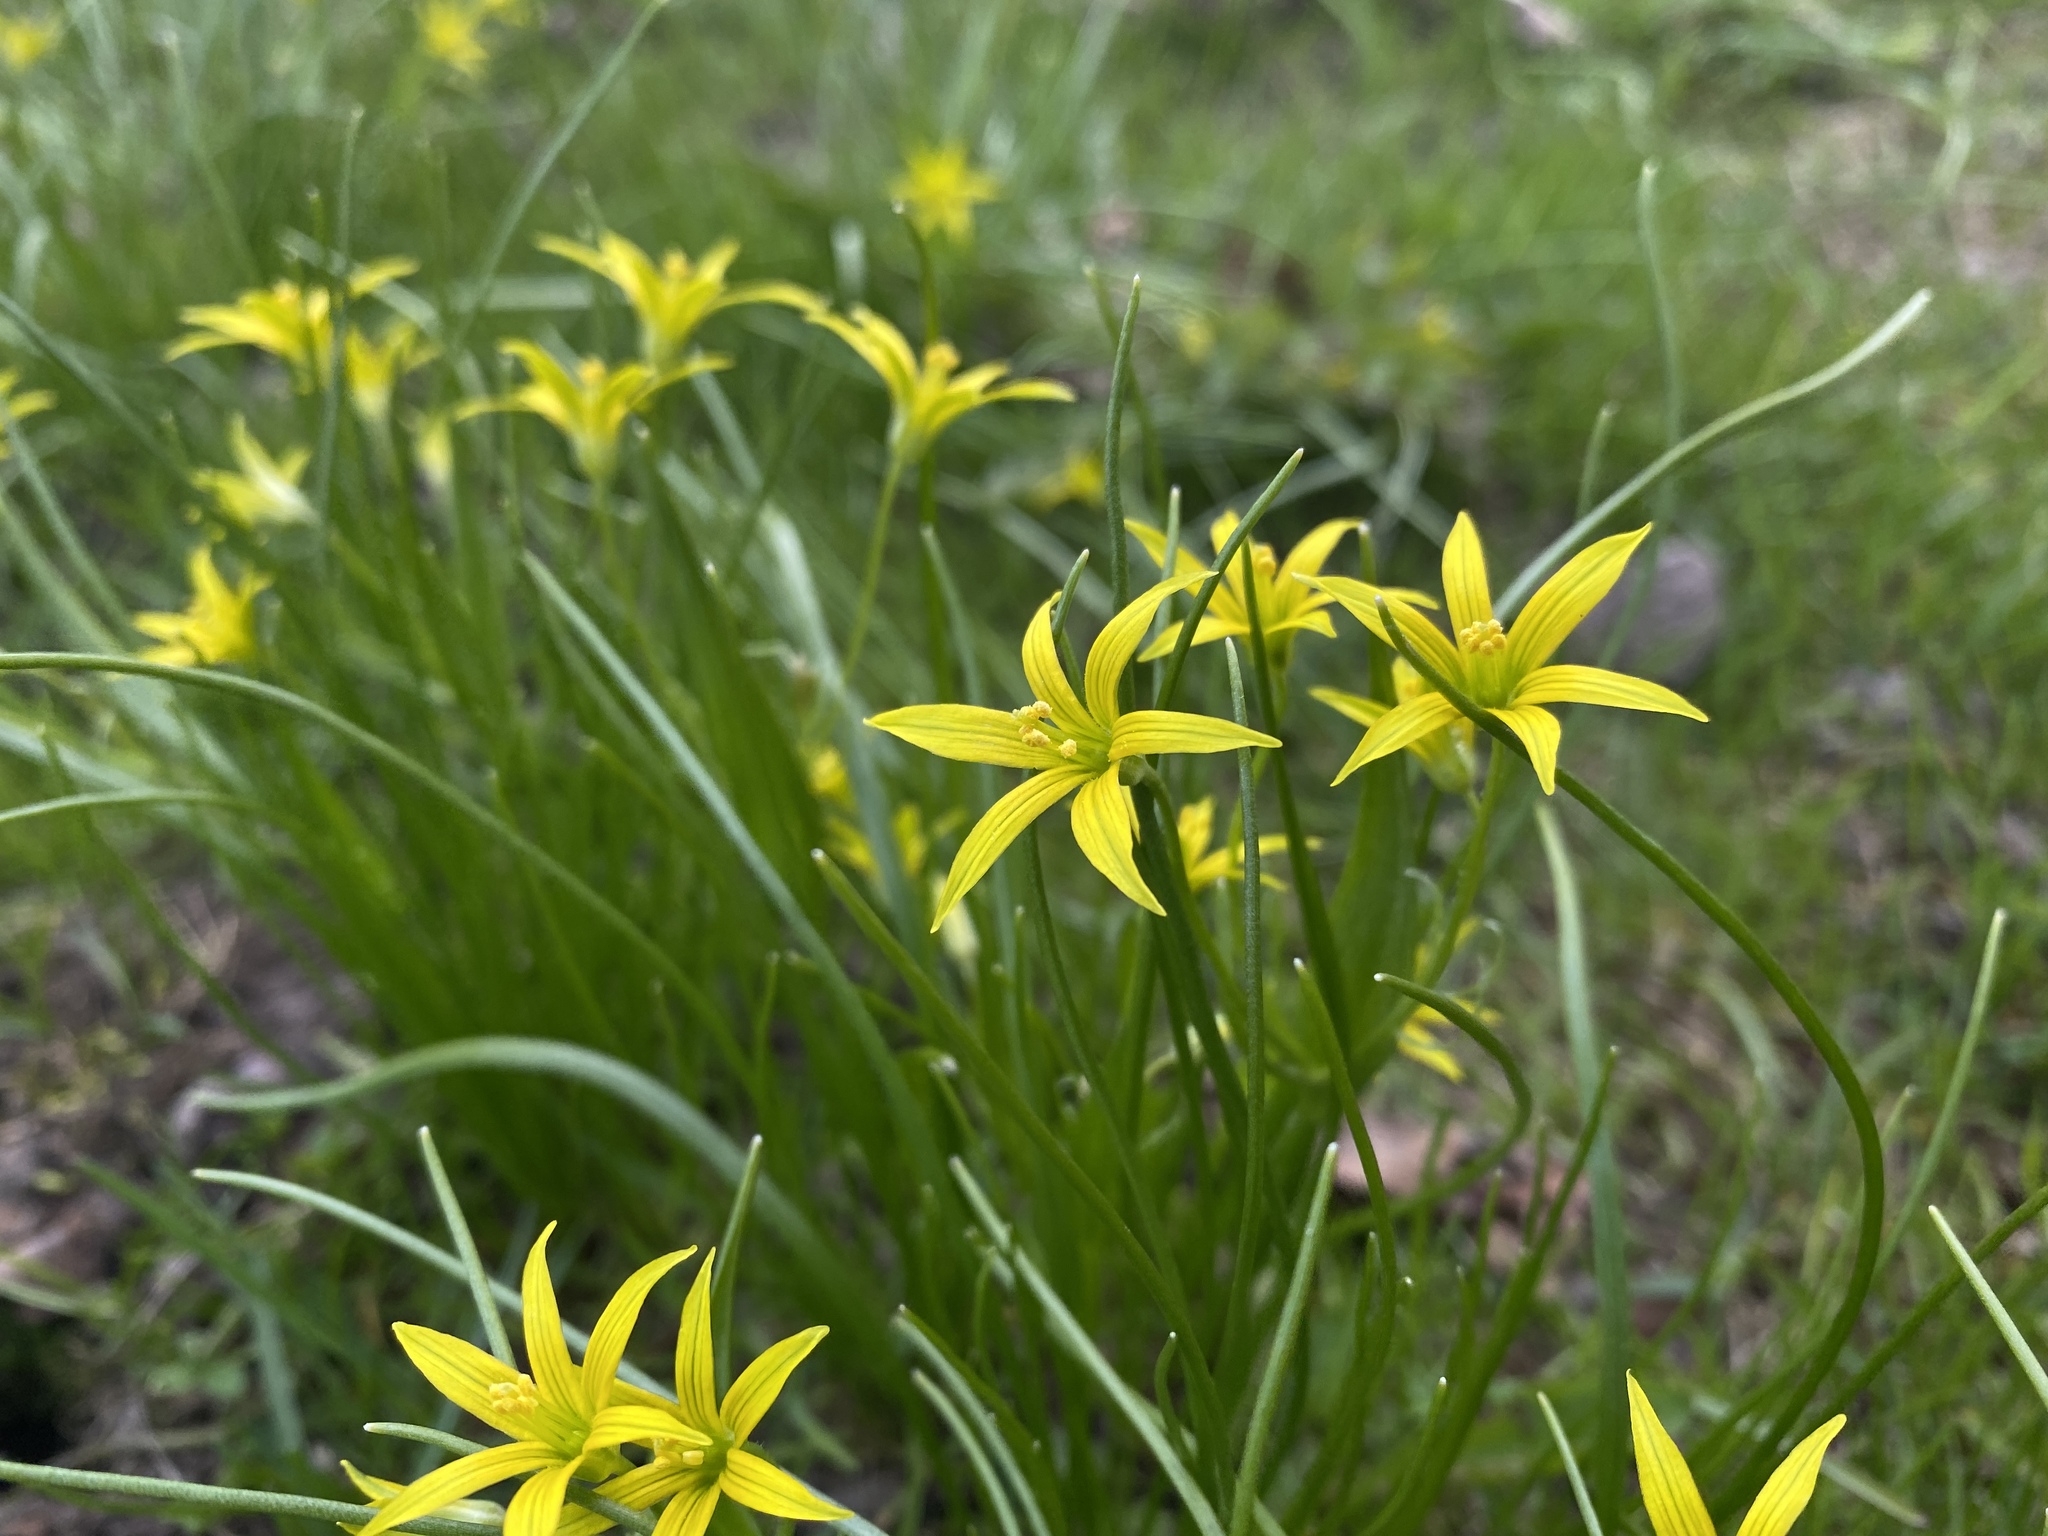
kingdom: Plantae
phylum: Tracheophyta
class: Liliopsida
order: Liliales
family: Liliaceae
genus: Gagea
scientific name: Gagea minima
